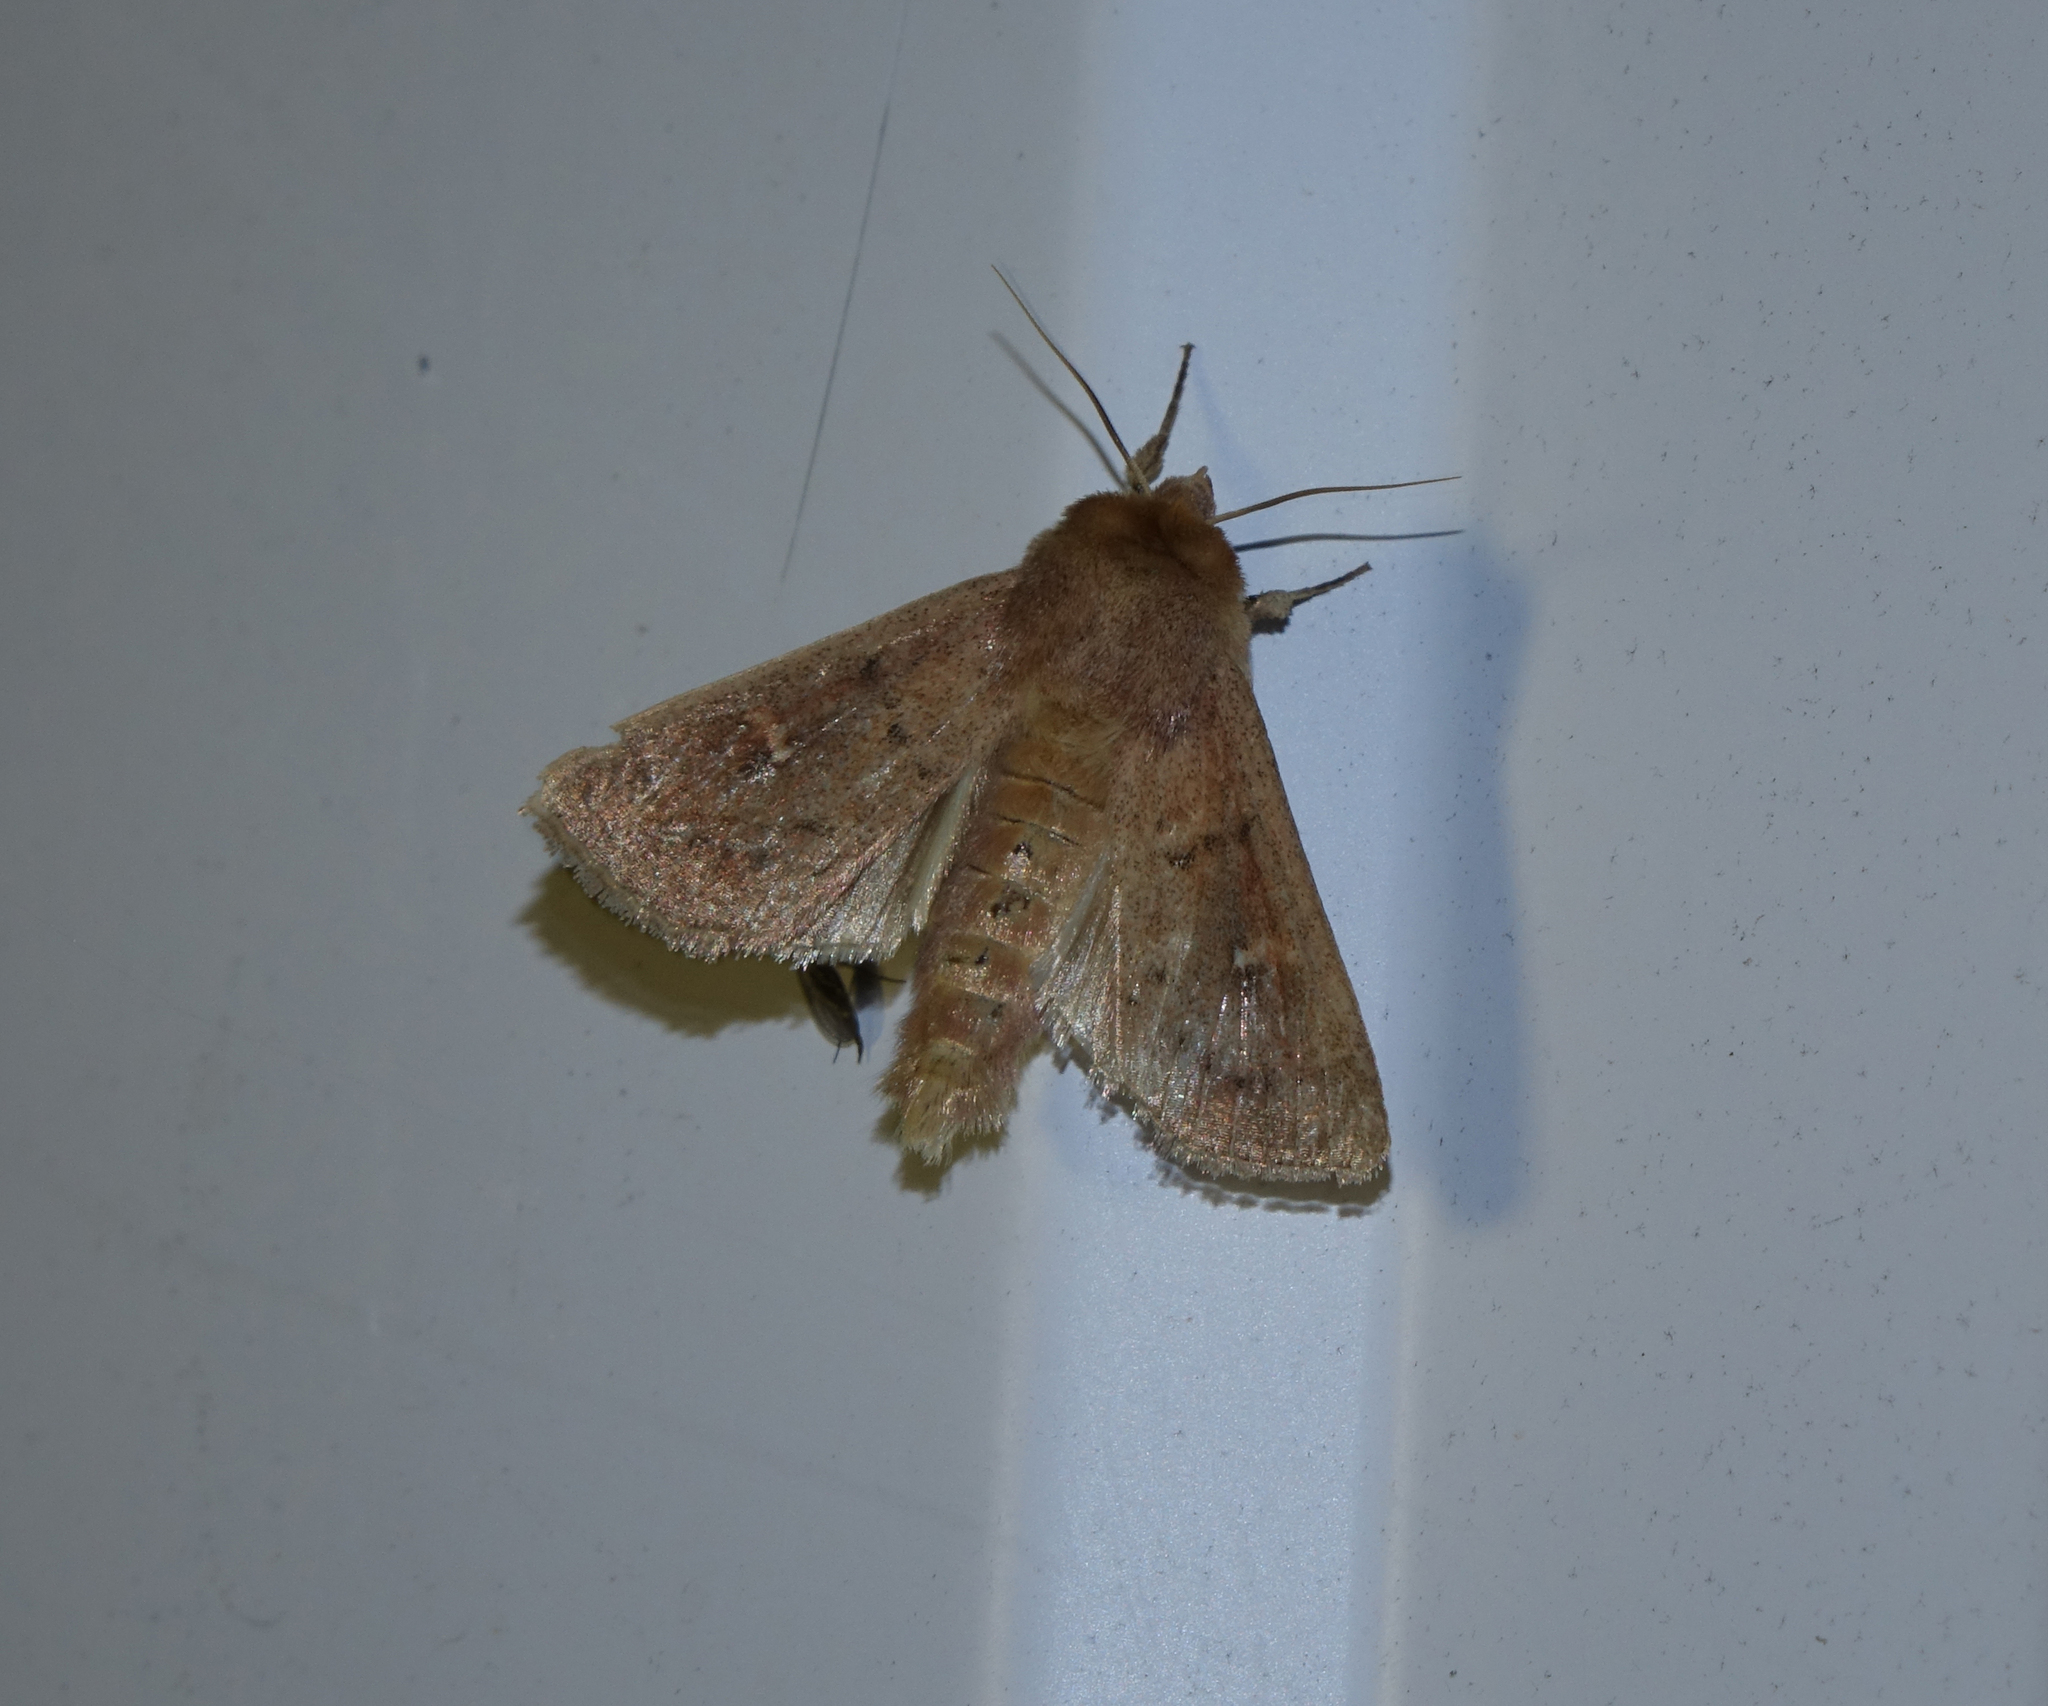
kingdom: Animalia
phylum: Arthropoda
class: Insecta
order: Lepidoptera
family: Noctuidae
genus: Mythimna
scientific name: Mythimna ferrago
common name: Clay
